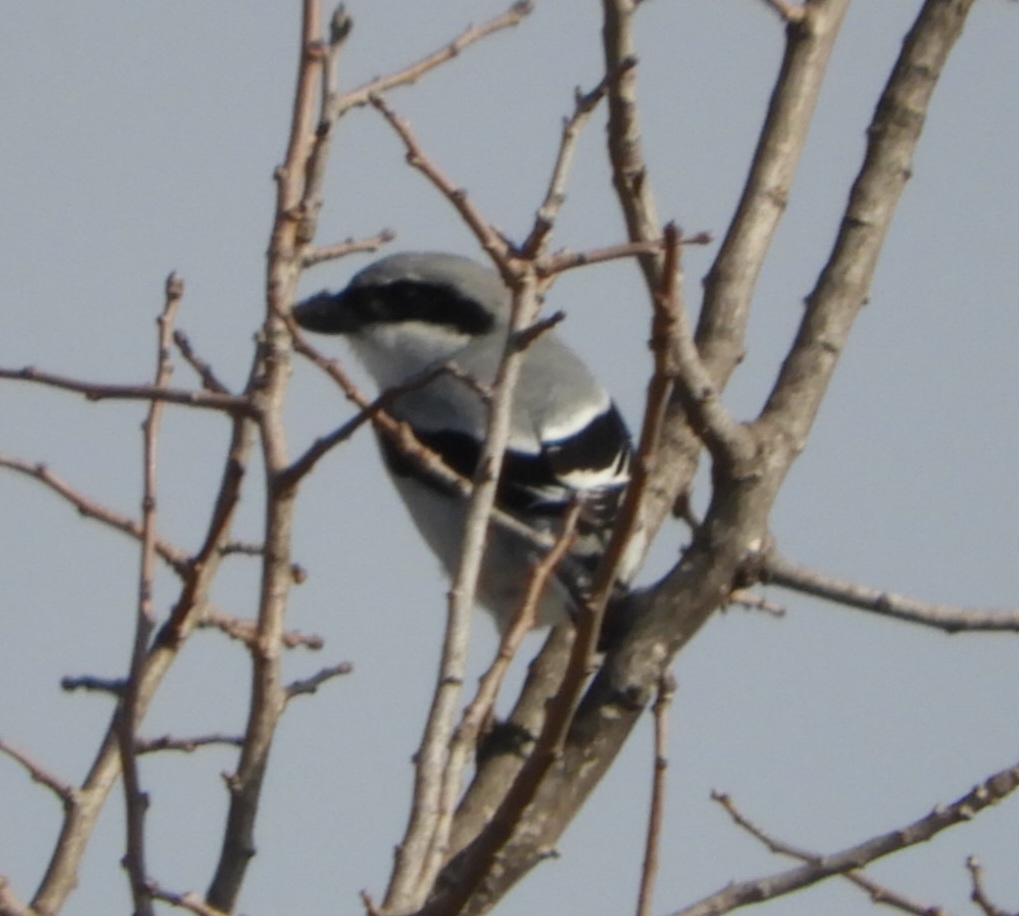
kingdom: Animalia
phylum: Chordata
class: Aves
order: Passeriformes
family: Laniidae
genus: Lanius
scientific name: Lanius excubitor
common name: Great grey shrike
